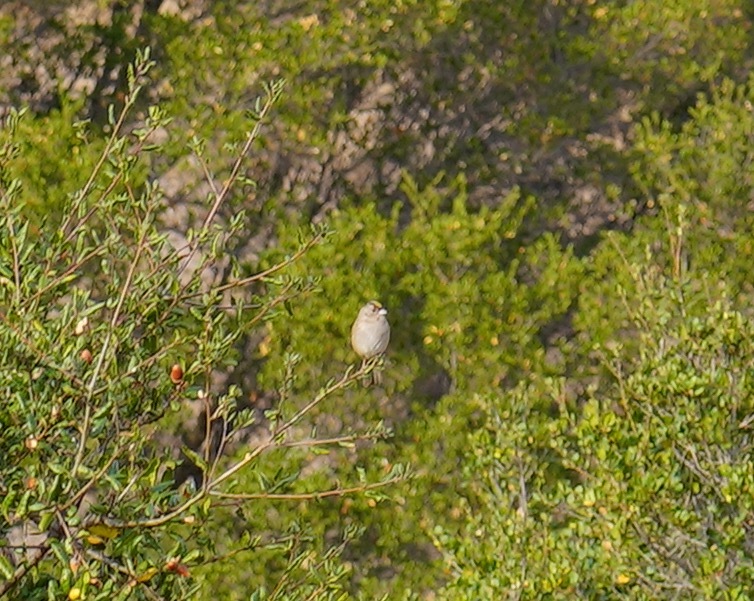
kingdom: Animalia
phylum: Chordata
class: Aves
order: Passeriformes
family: Passerellidae
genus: Zonotrichia
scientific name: Zonotrichia atricapilla
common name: Golden-crowned sparrow
